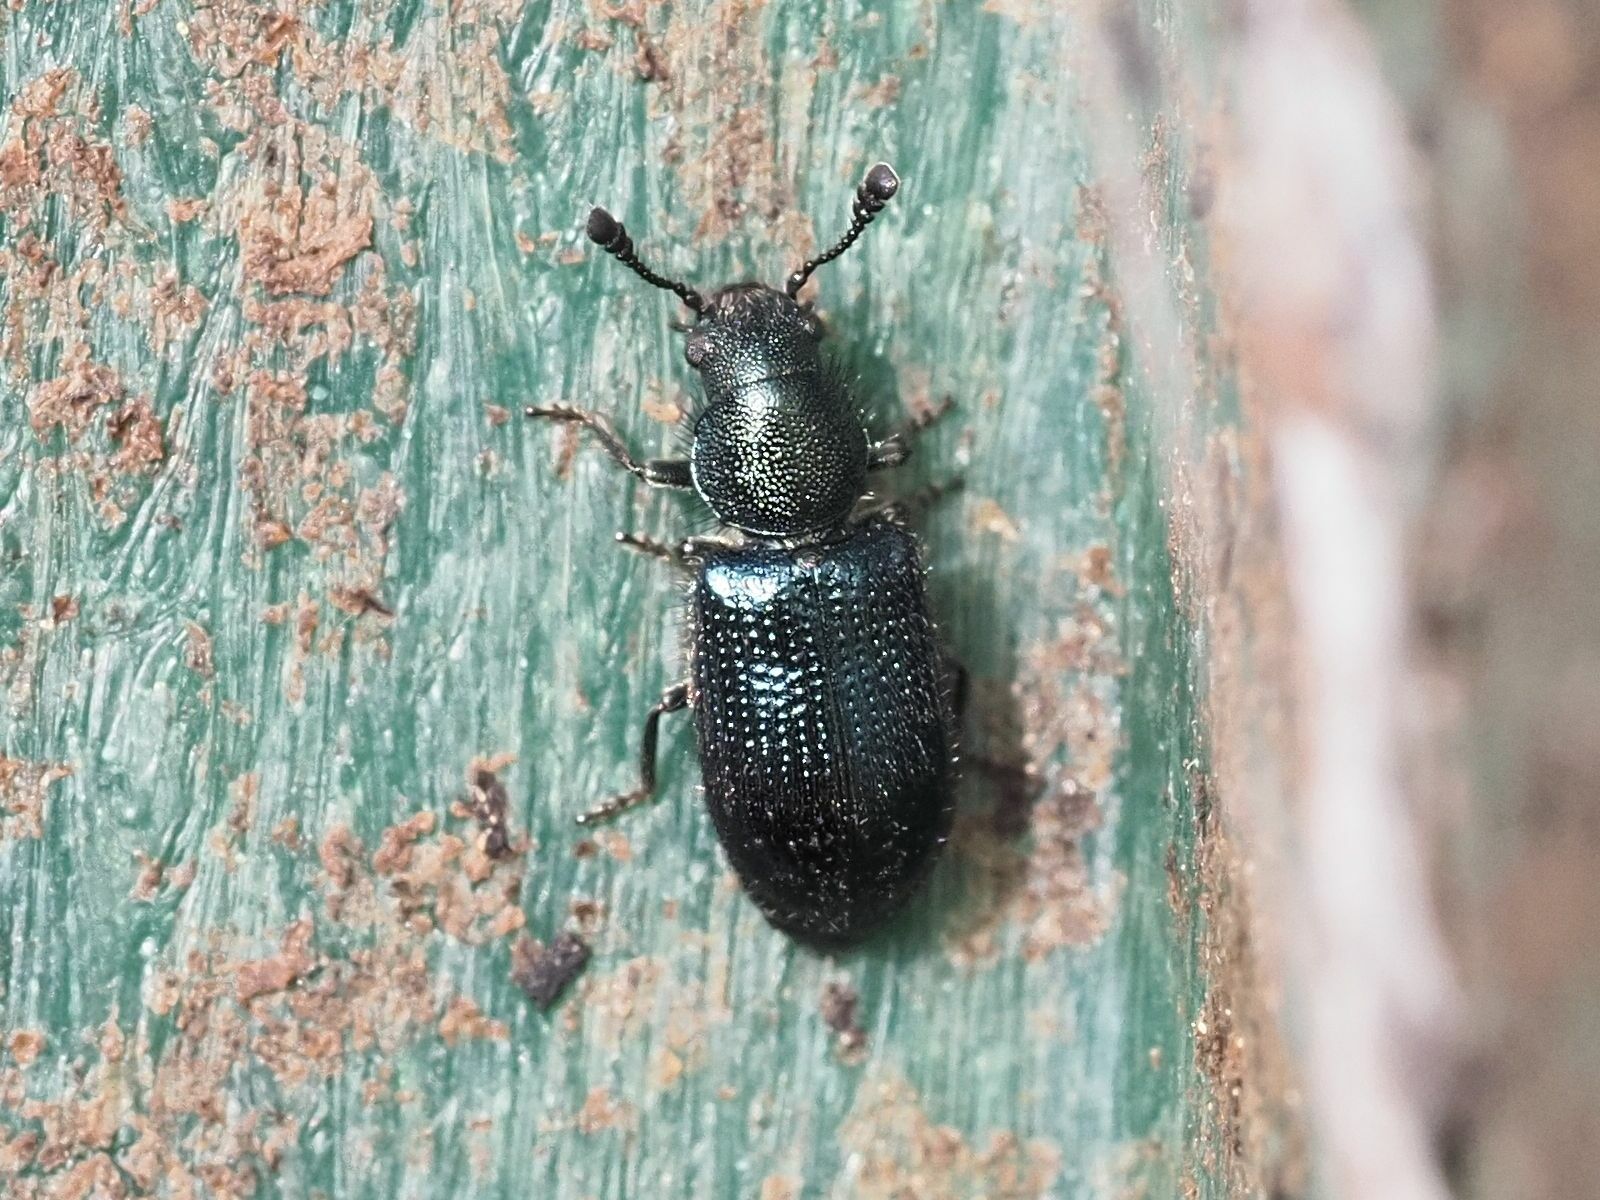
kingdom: Animalia
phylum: Arthropoda
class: Insecta
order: Coleoptera
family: Cleridae
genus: Necrobia
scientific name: Necrobia violacea
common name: Violet checkered beetle
